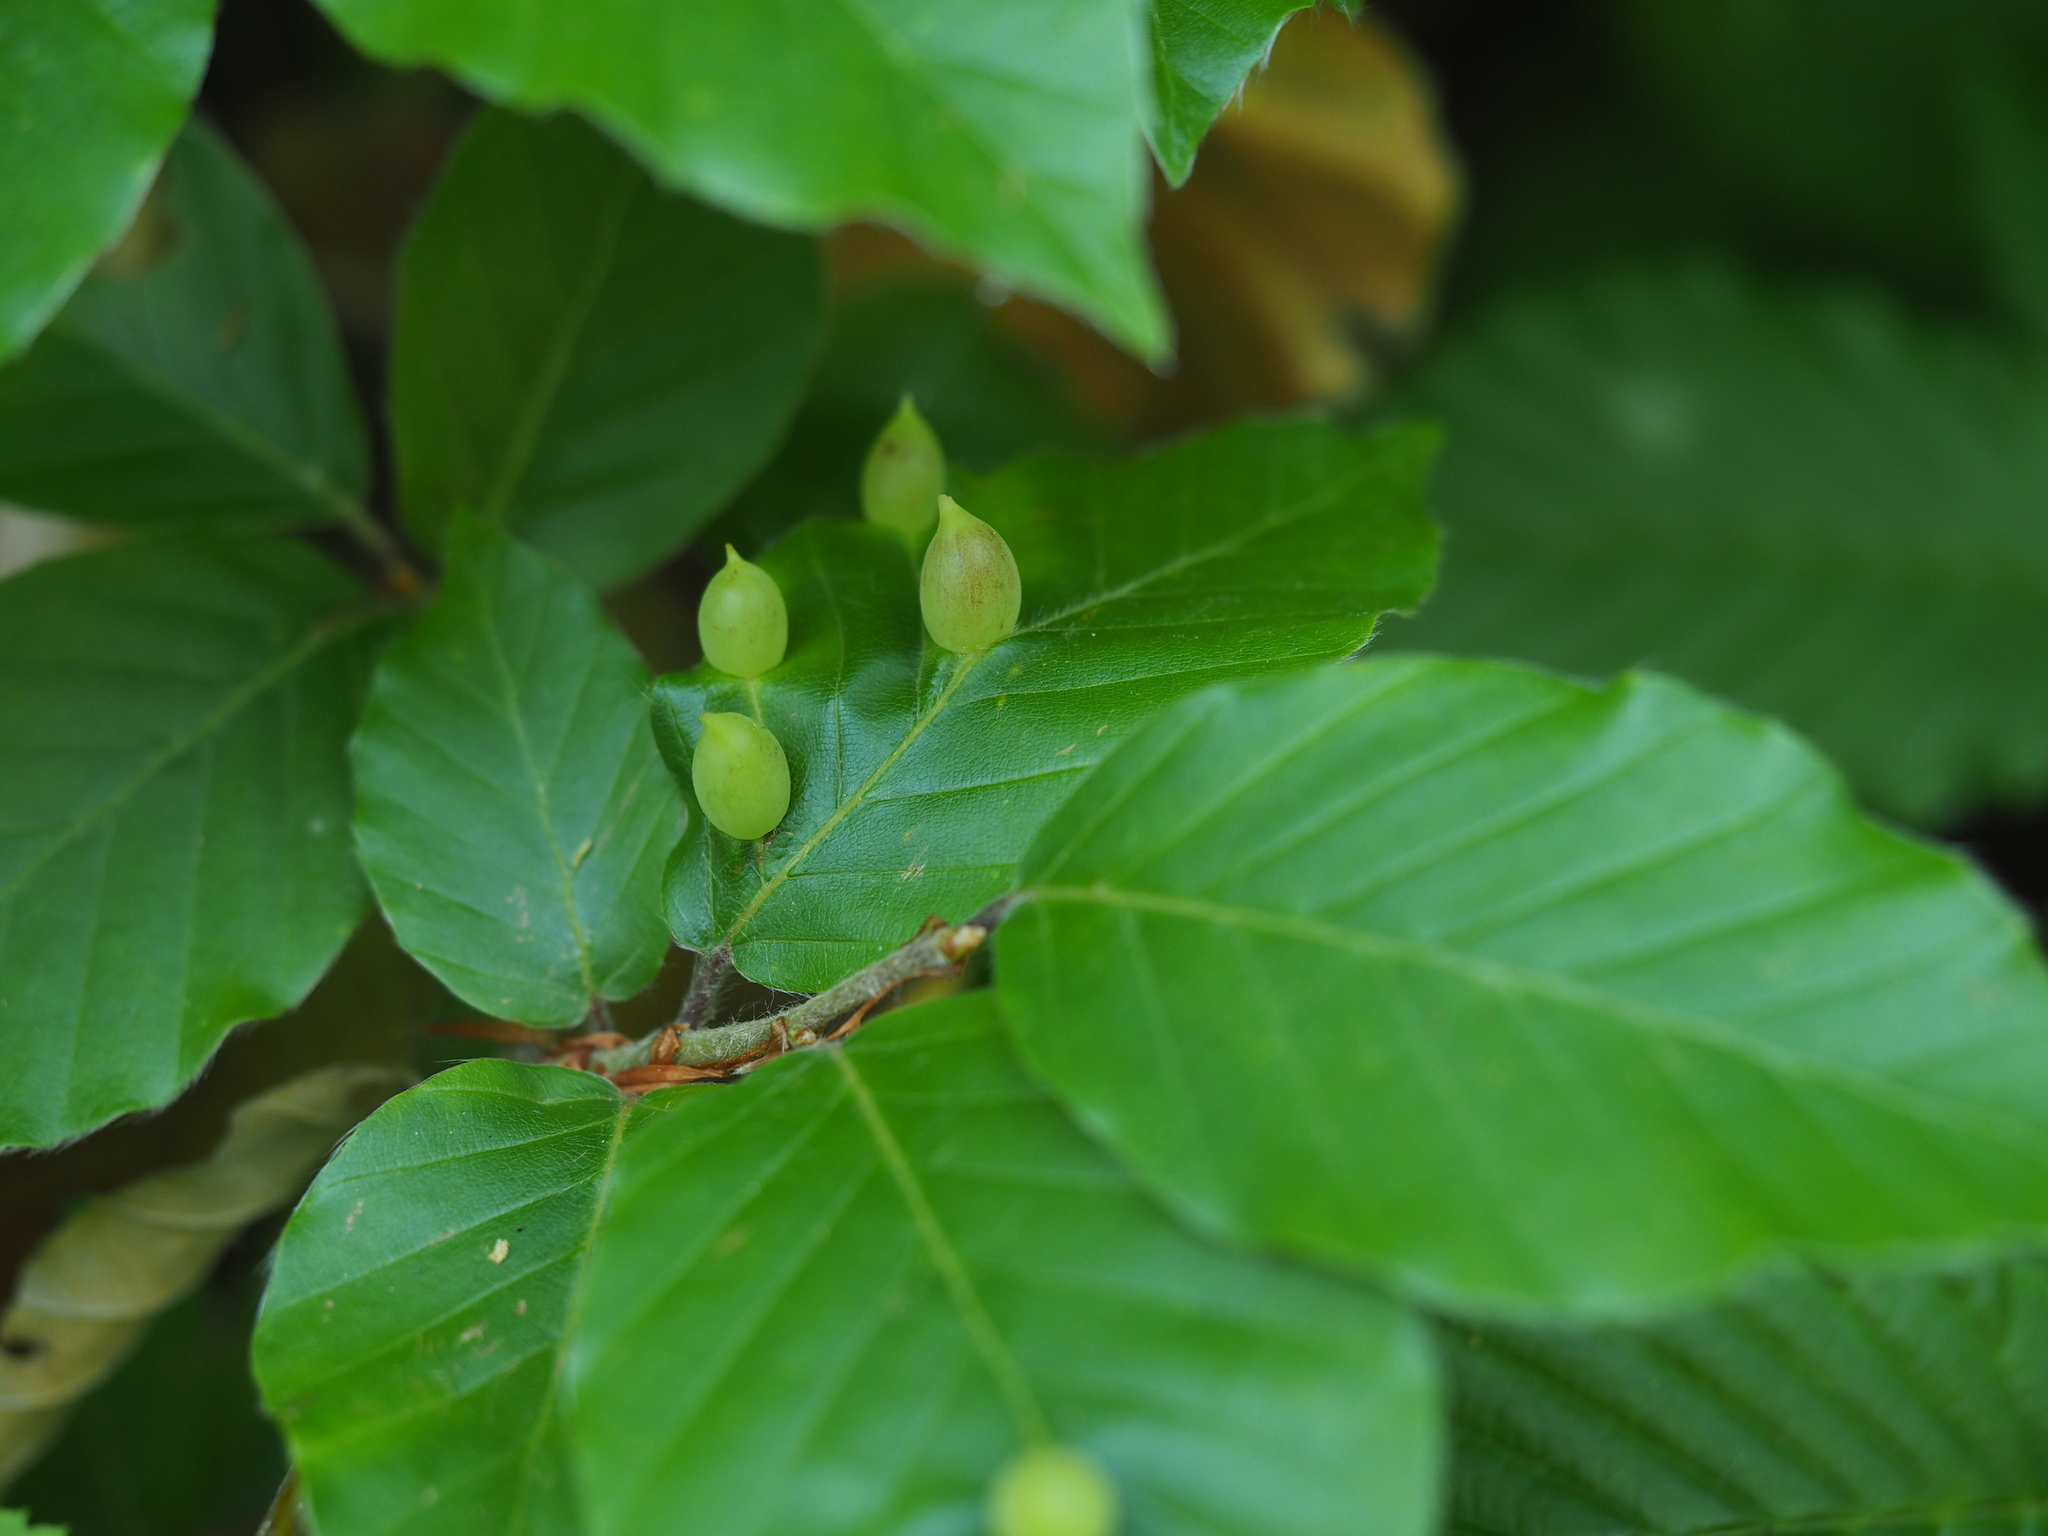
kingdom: Animalia
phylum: Arthropoda
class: Insecta
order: Diptera
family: Cecidomyiidae
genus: Mikiola
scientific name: Mikiola fagi
